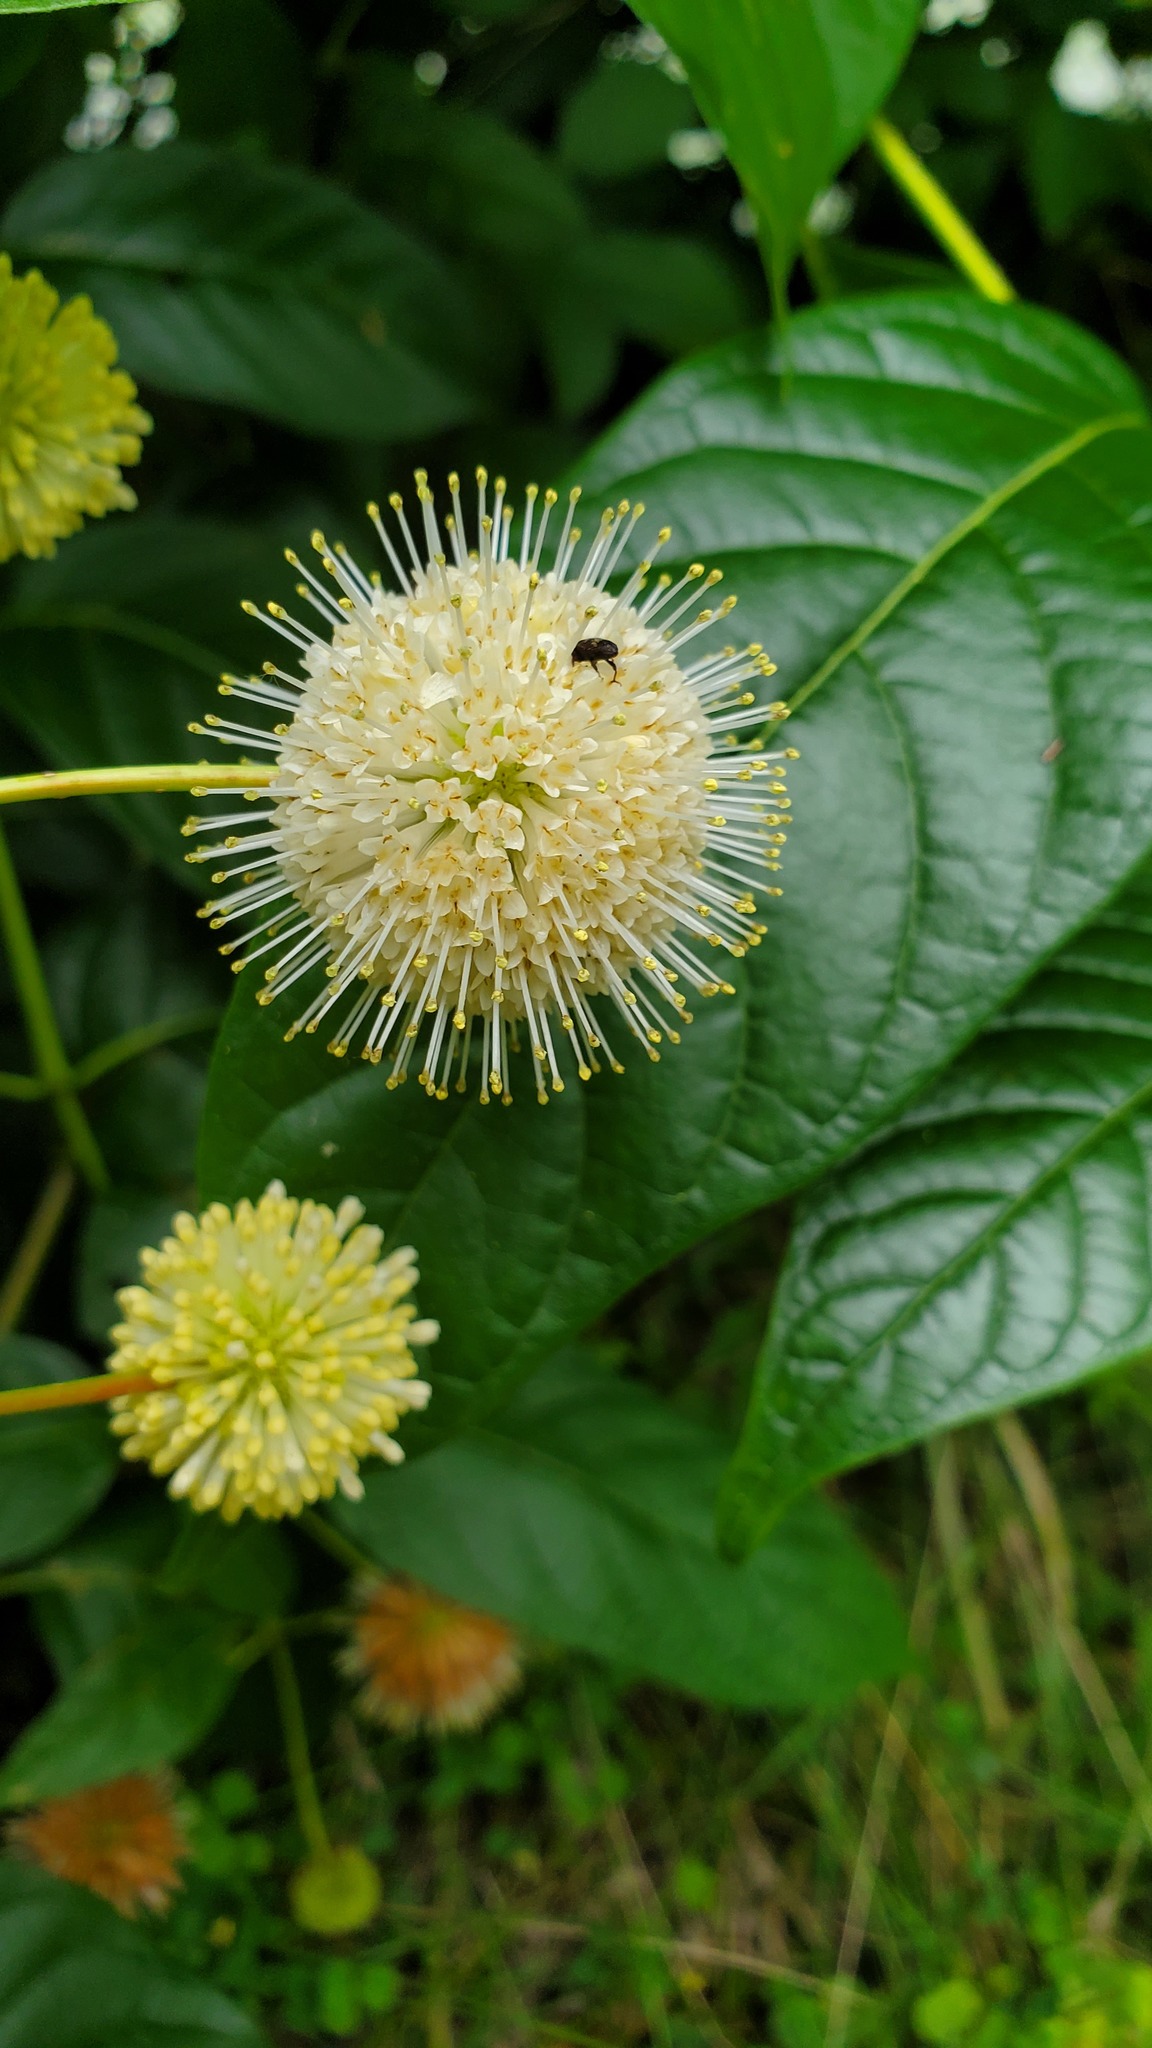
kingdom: Plantae
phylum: Tracheophyta
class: Magnoliopsida
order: Gentianales
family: Rubiaceae
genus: Cephalanthus
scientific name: Cephalanthus occidentalis
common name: Button-willow
